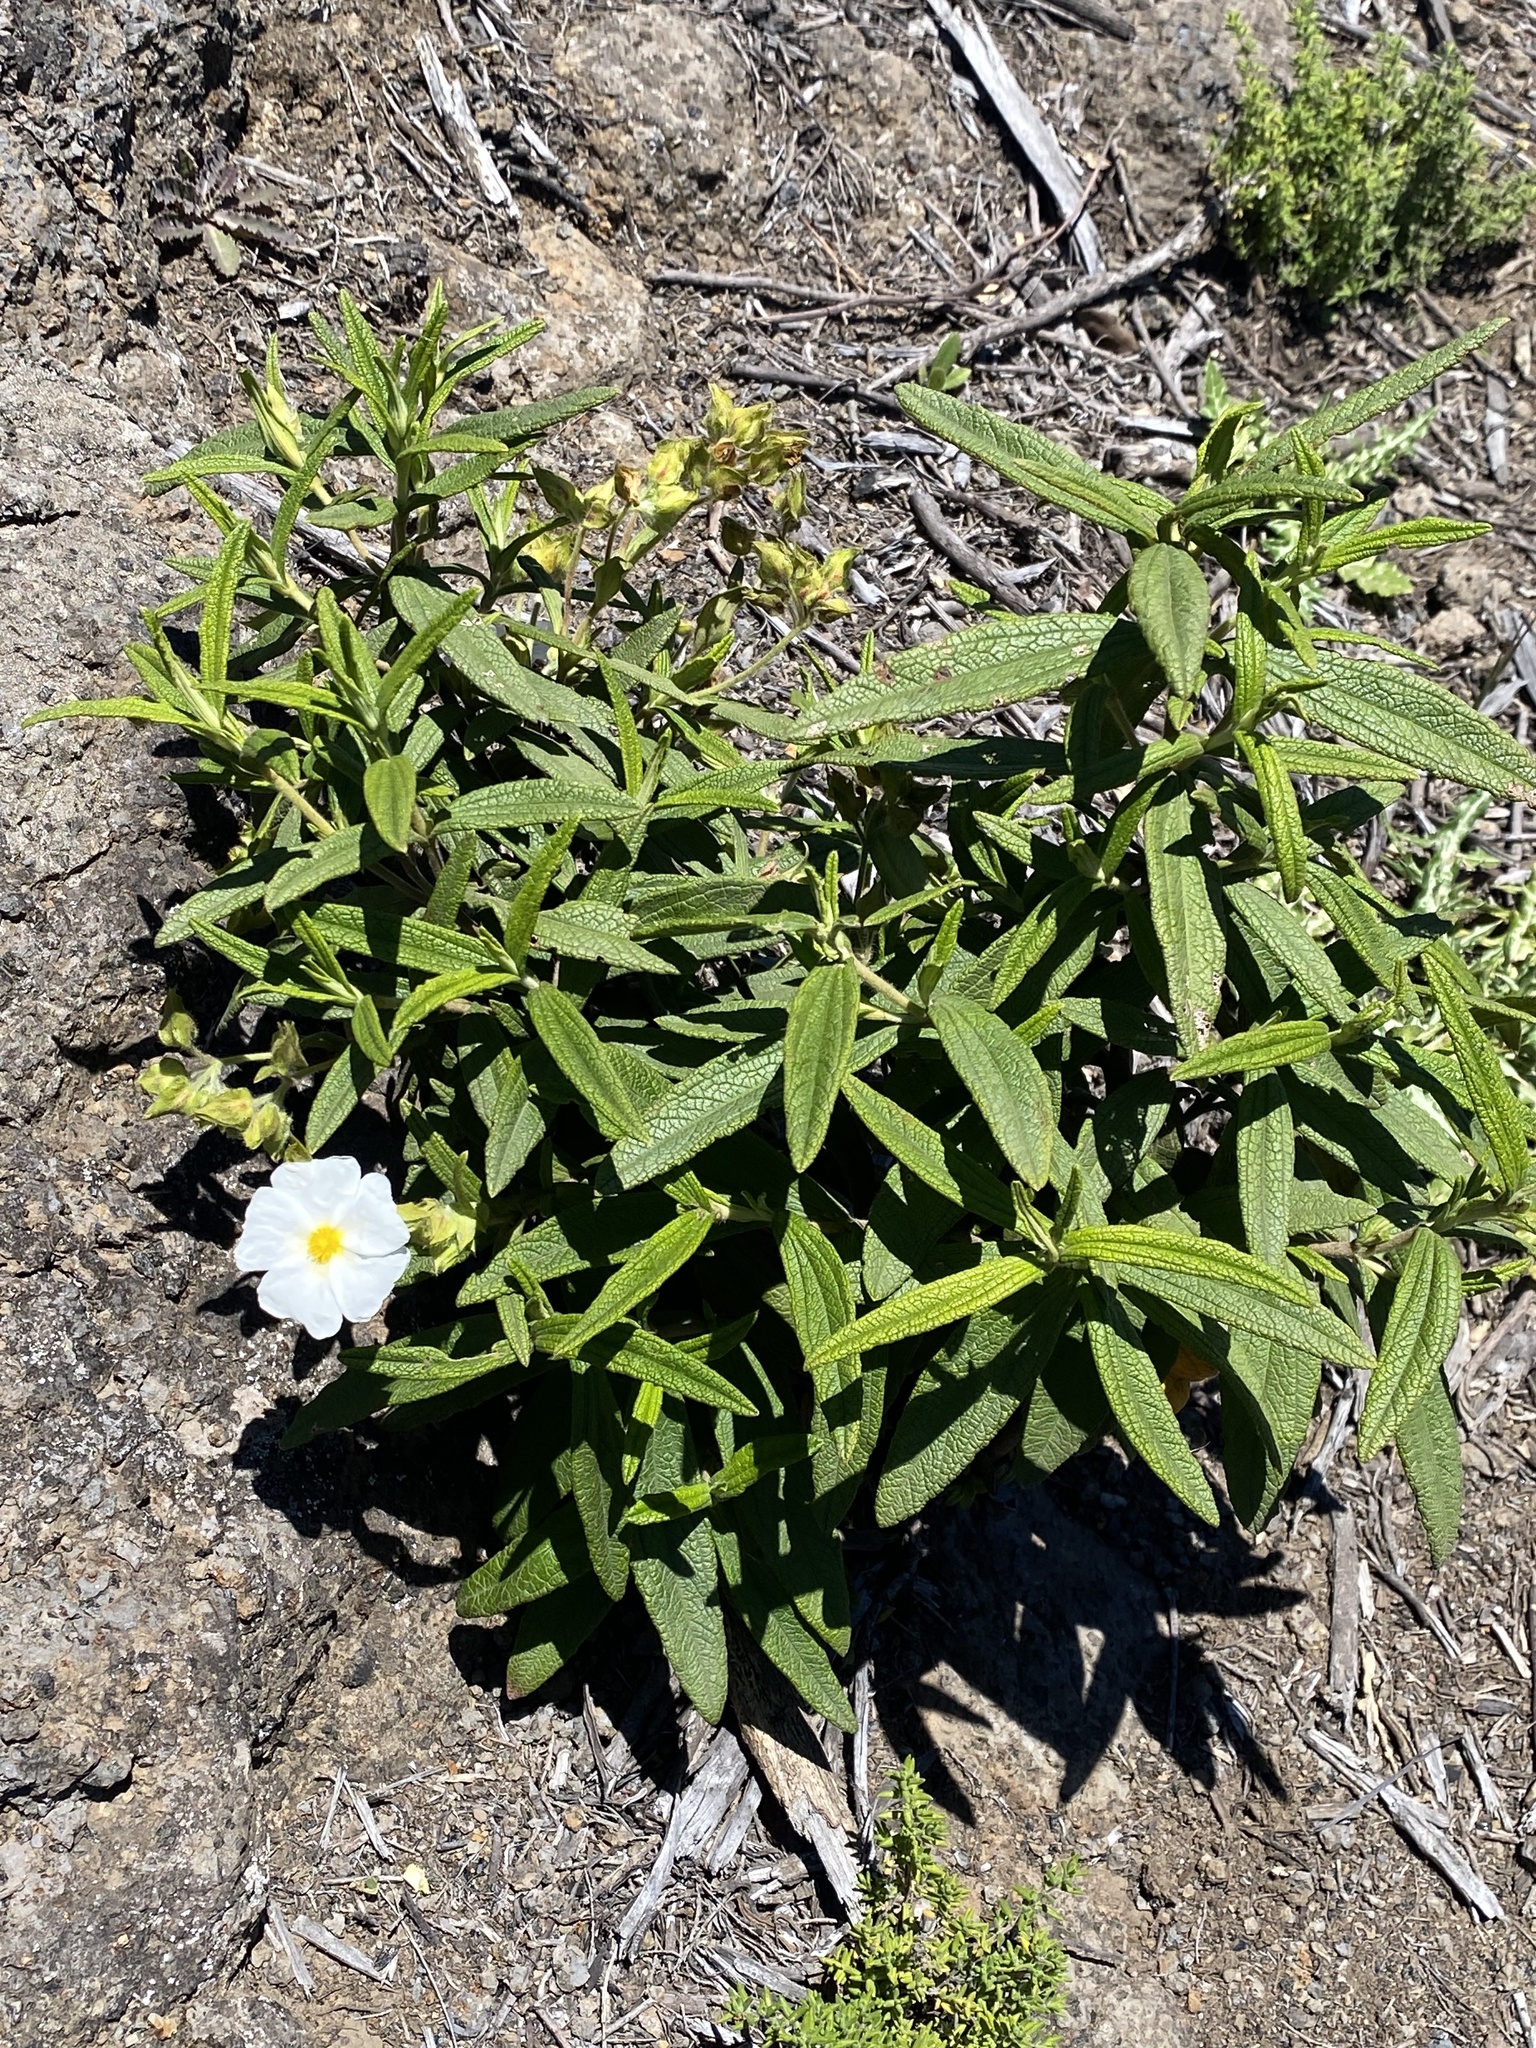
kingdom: Plantae
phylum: Tracheophyta
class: Magnoliopsida
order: Malvales
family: Cistaceae
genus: Cistus
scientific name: Cistus monspeliensis
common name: Montpelier cistus
